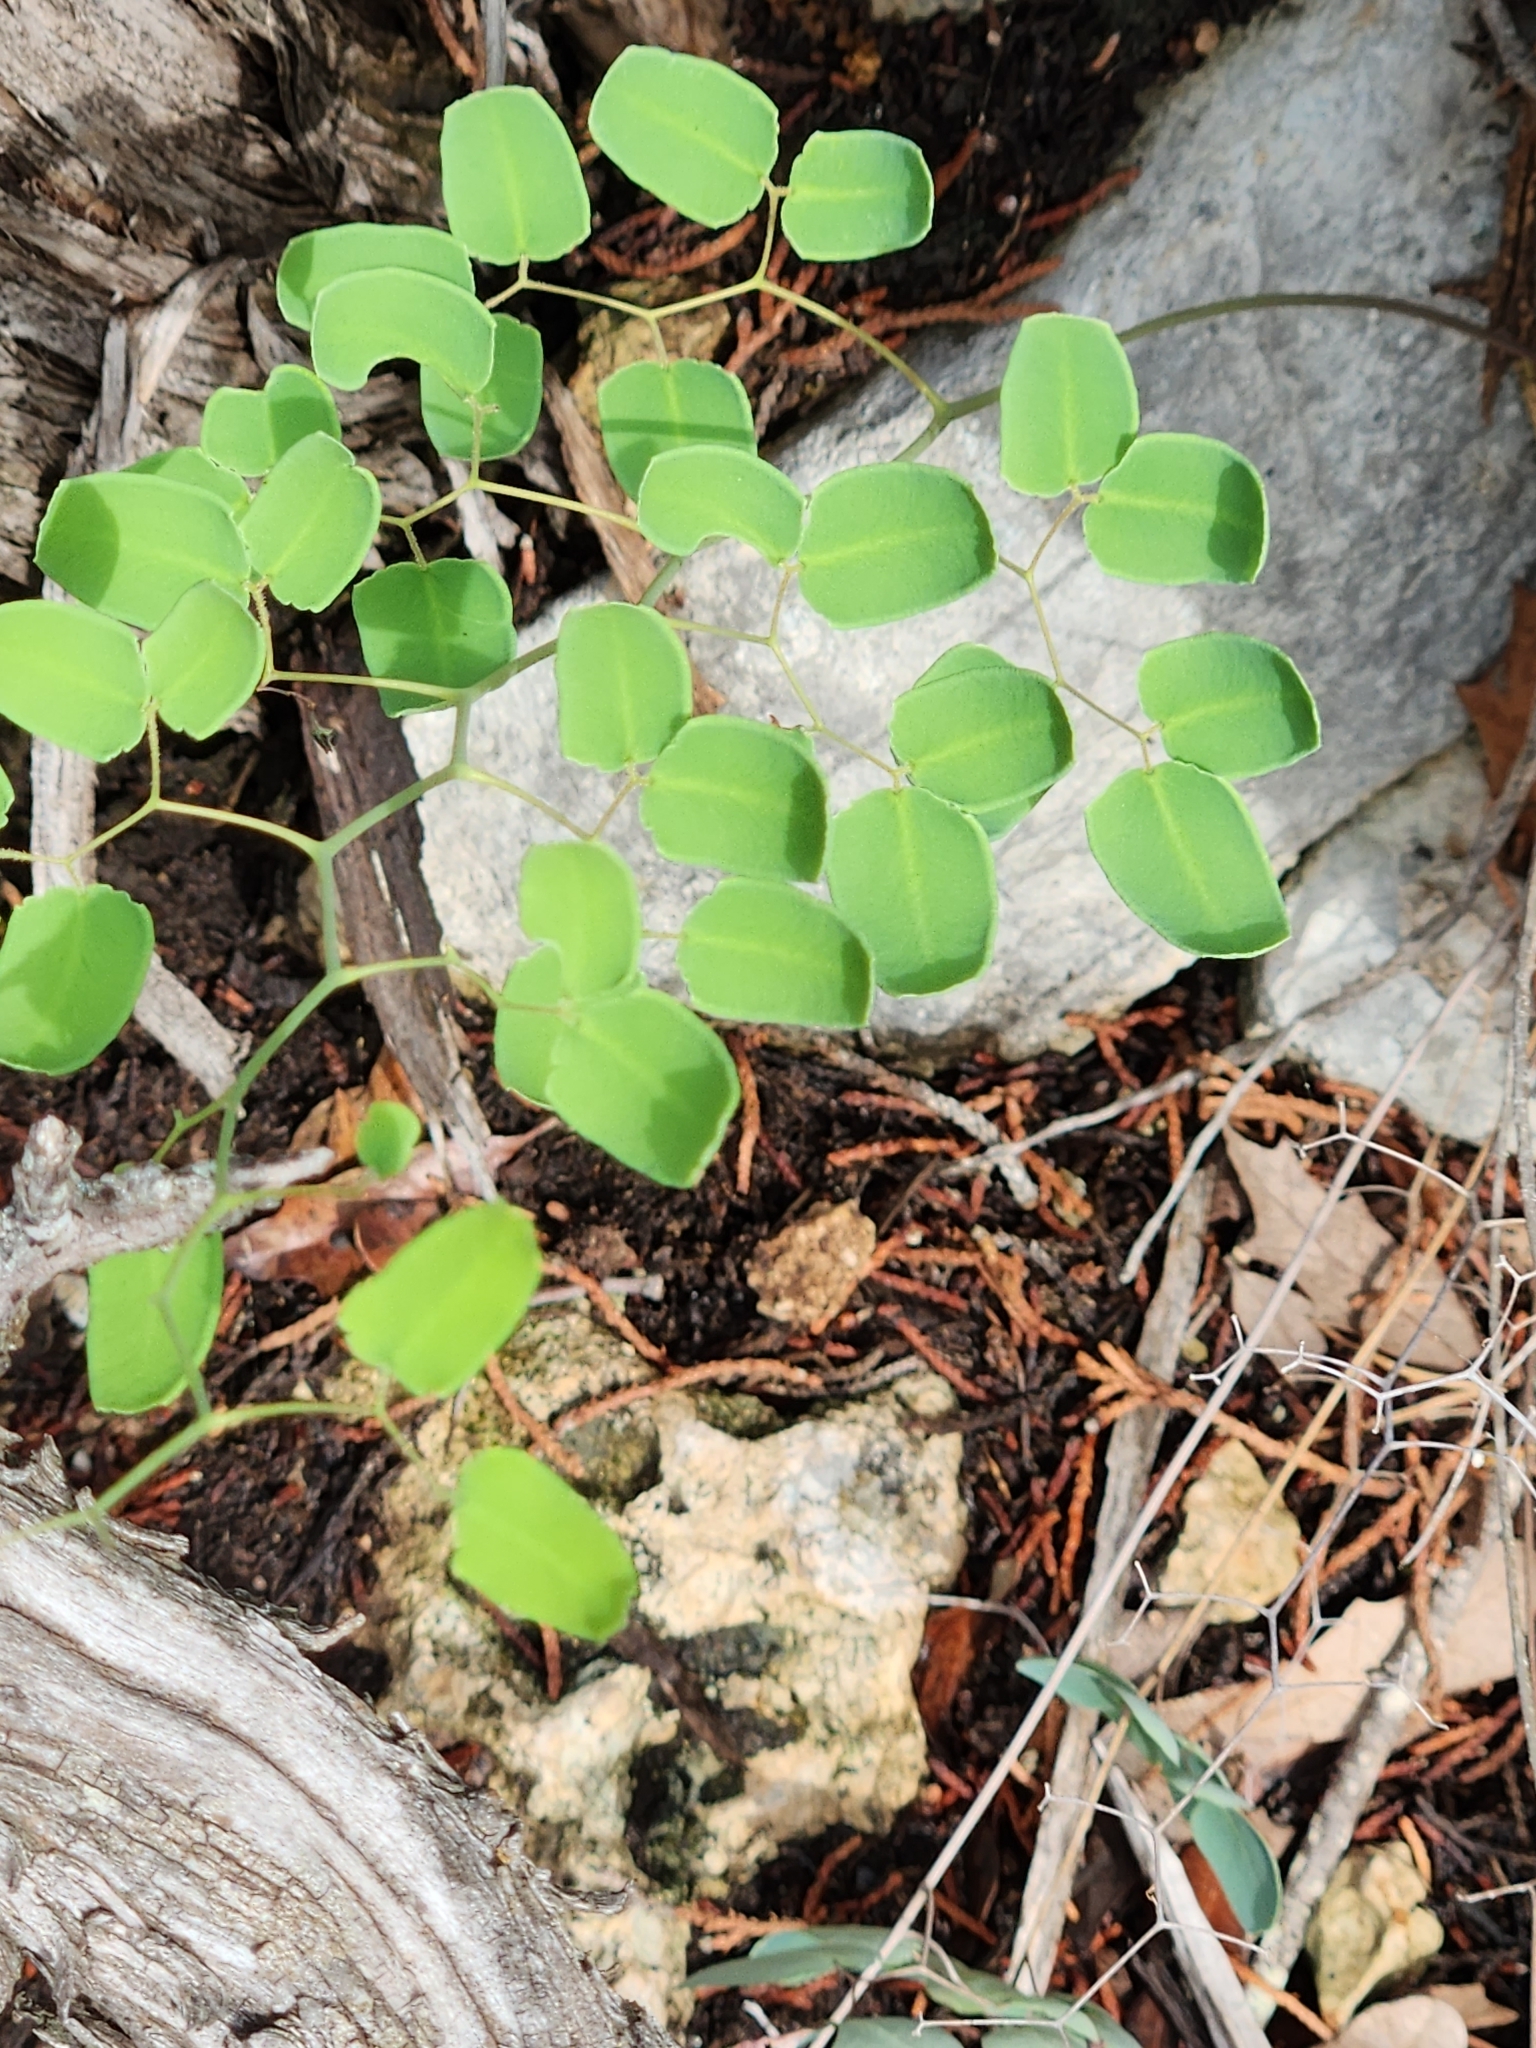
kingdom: Plantae
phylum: Tracheophyta
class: Polypodiopsida
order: Polypodiales
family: Pteridaceae
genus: Pellaea
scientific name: Pellaea ovata
